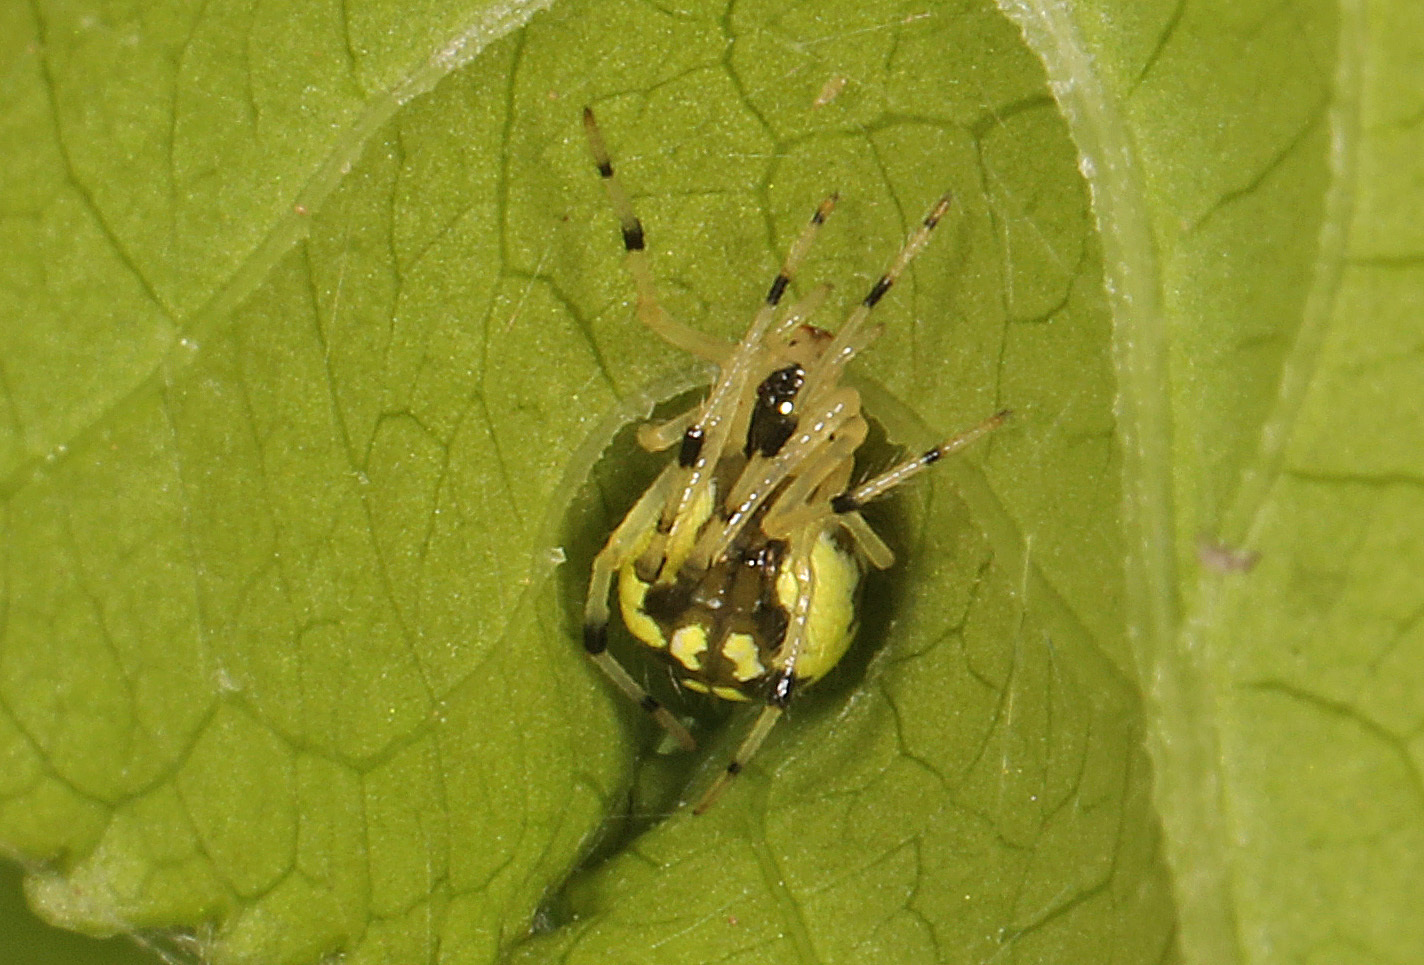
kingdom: Animalia
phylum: Arthropoda
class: Arachnida
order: Araneae
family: Theridiidae
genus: Phylloneta
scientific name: Phylloneta pictipes
